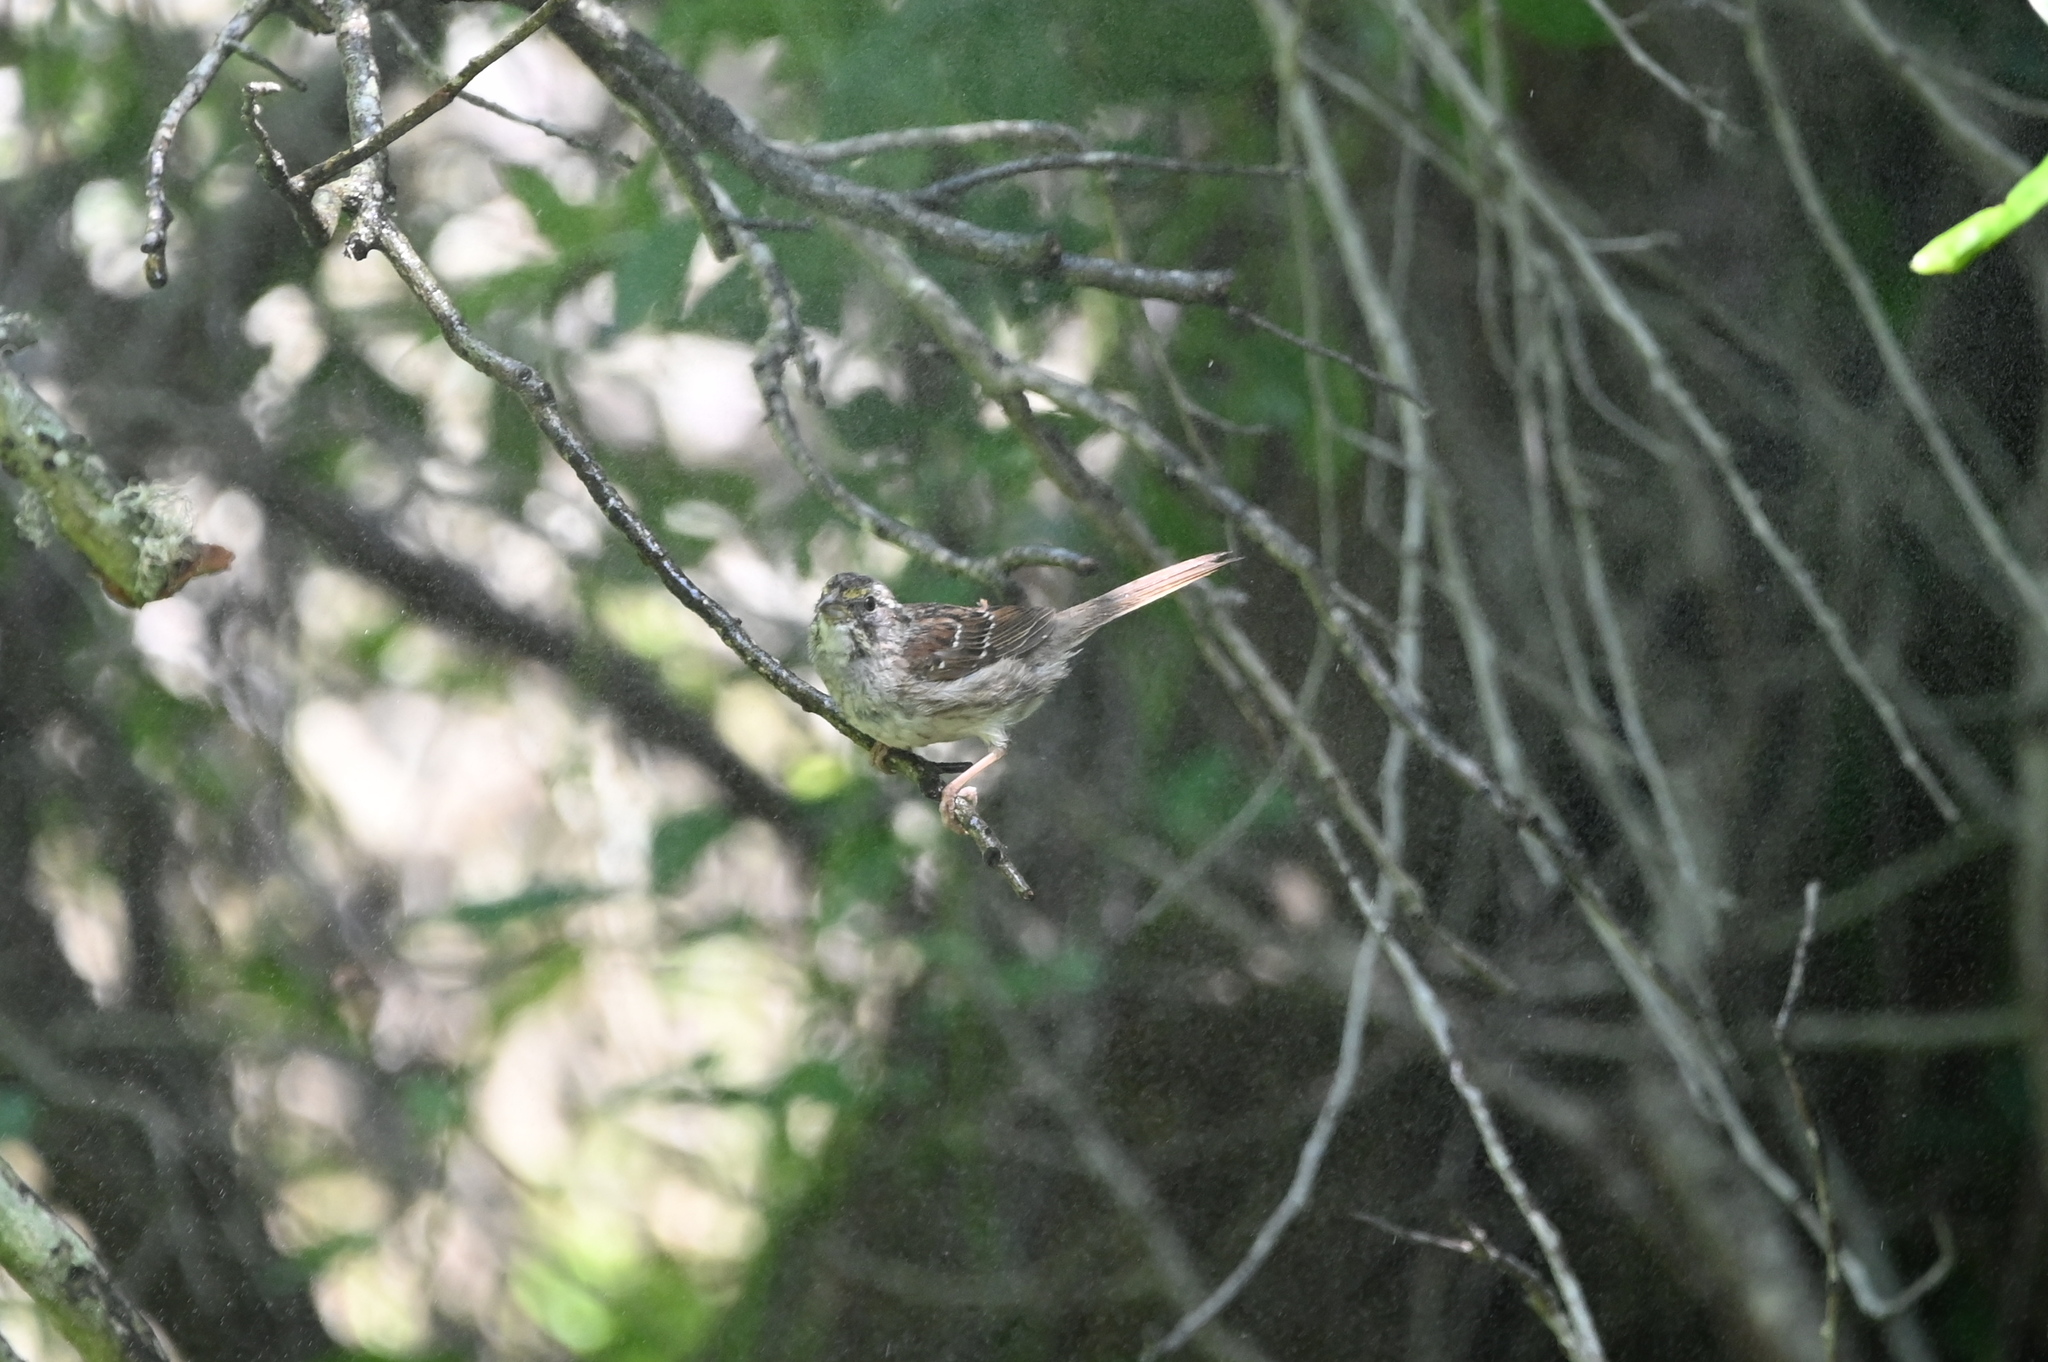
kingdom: Animalia
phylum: Chordata
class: Aves
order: Passeriformes
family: Passerellidae
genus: Zonotrichia
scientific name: Zonotrichia albicollis
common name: White-throated sparrow
